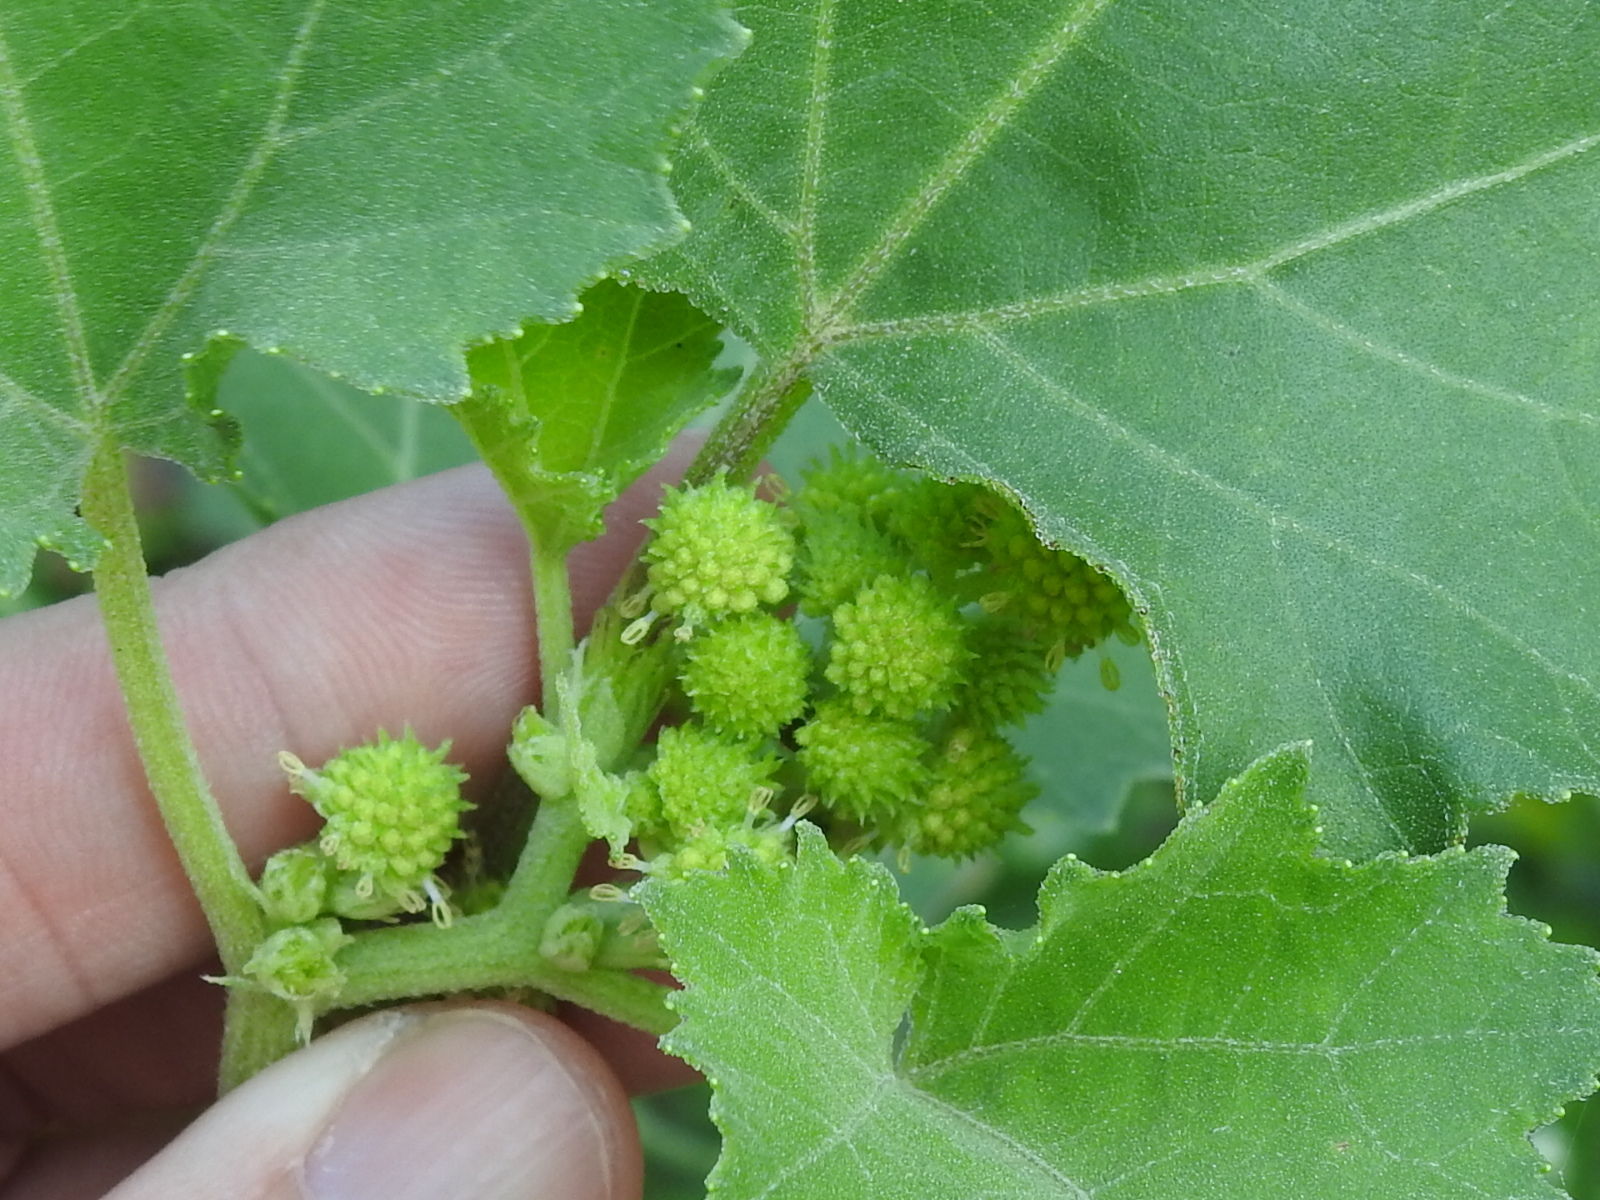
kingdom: Plantae
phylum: Tracheophyta
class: Magnoliopsida
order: Asterales
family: Asteraceae
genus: Xanthium
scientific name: Xanthium strumarium
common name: Rough cocklebur
